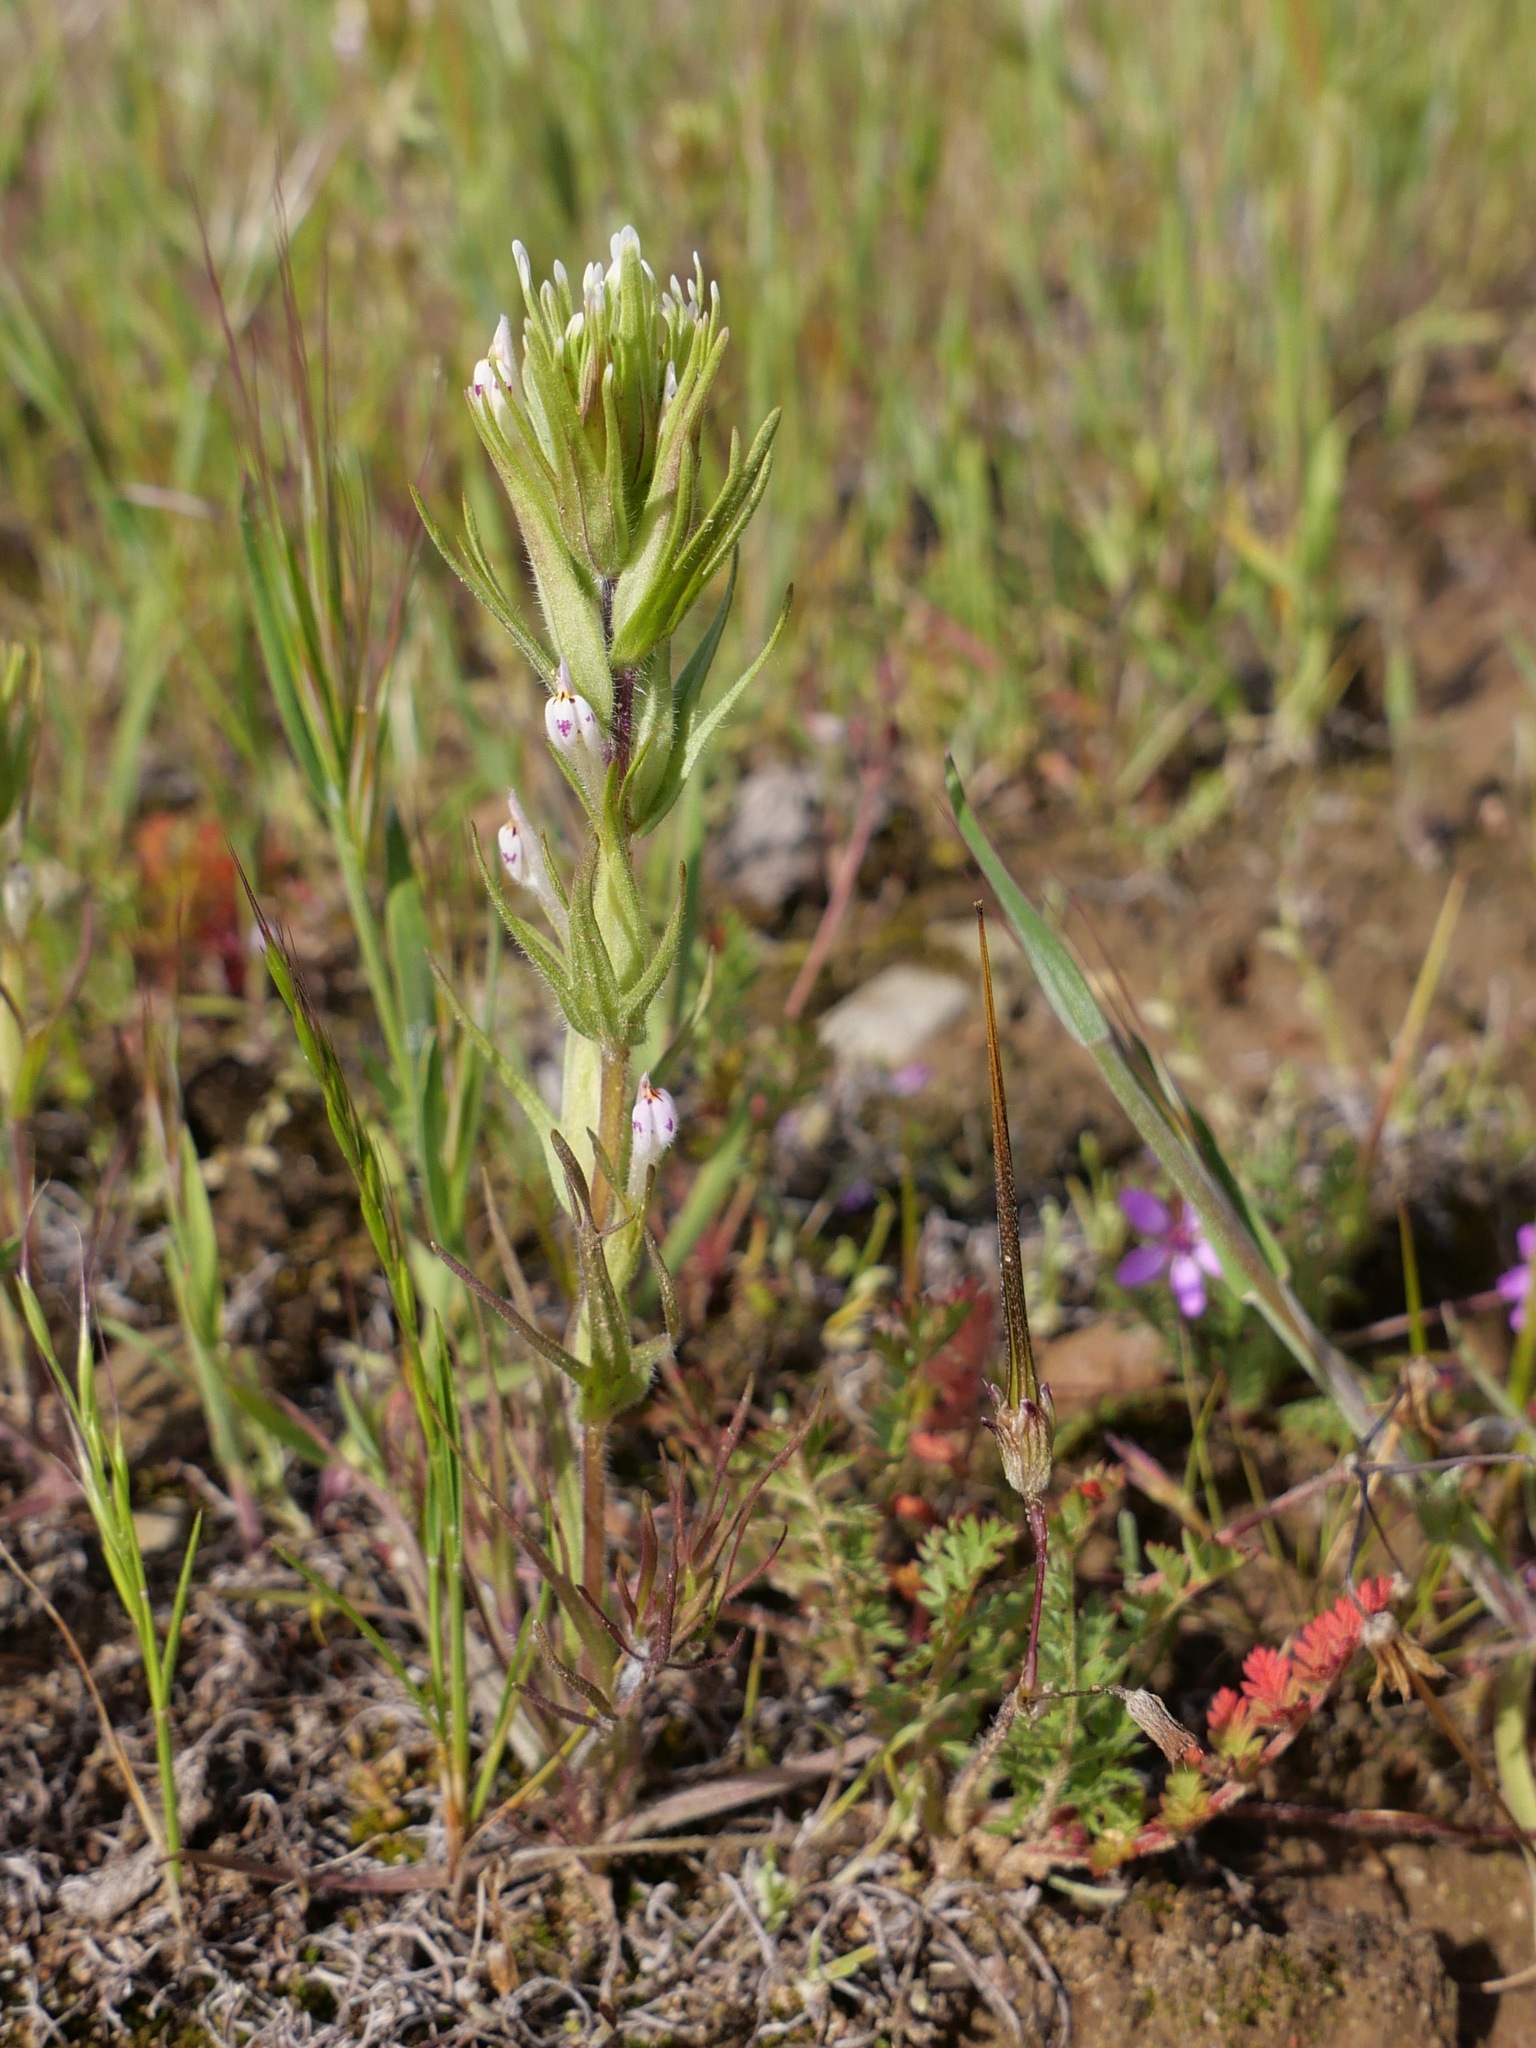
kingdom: Plantae
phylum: Tracheophyta
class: Magnoliopsida
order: Lamiales
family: Orobanchaceae
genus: Castilleja
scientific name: Castilleja attenuata
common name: Valley tassels
